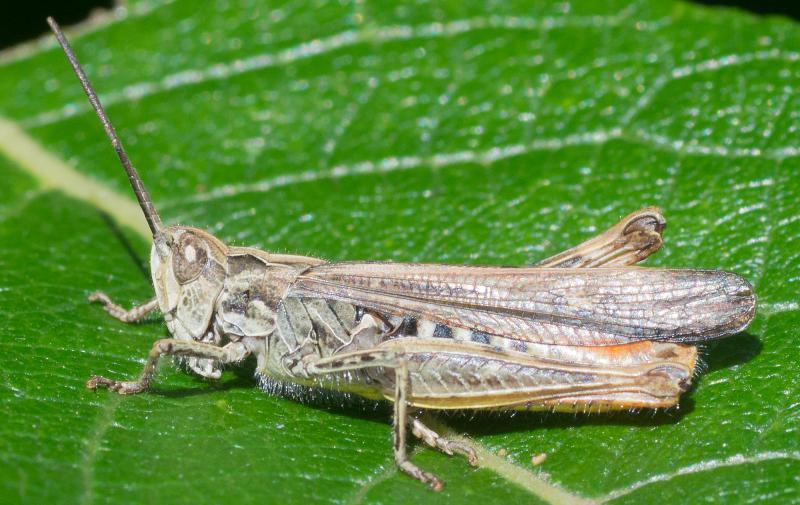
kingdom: Animalia
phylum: Arthropoda
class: Insecta
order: Orthoptera
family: Acrididae
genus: Chorthippus
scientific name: Chorthippus mollis
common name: Lesser field grasshopper
